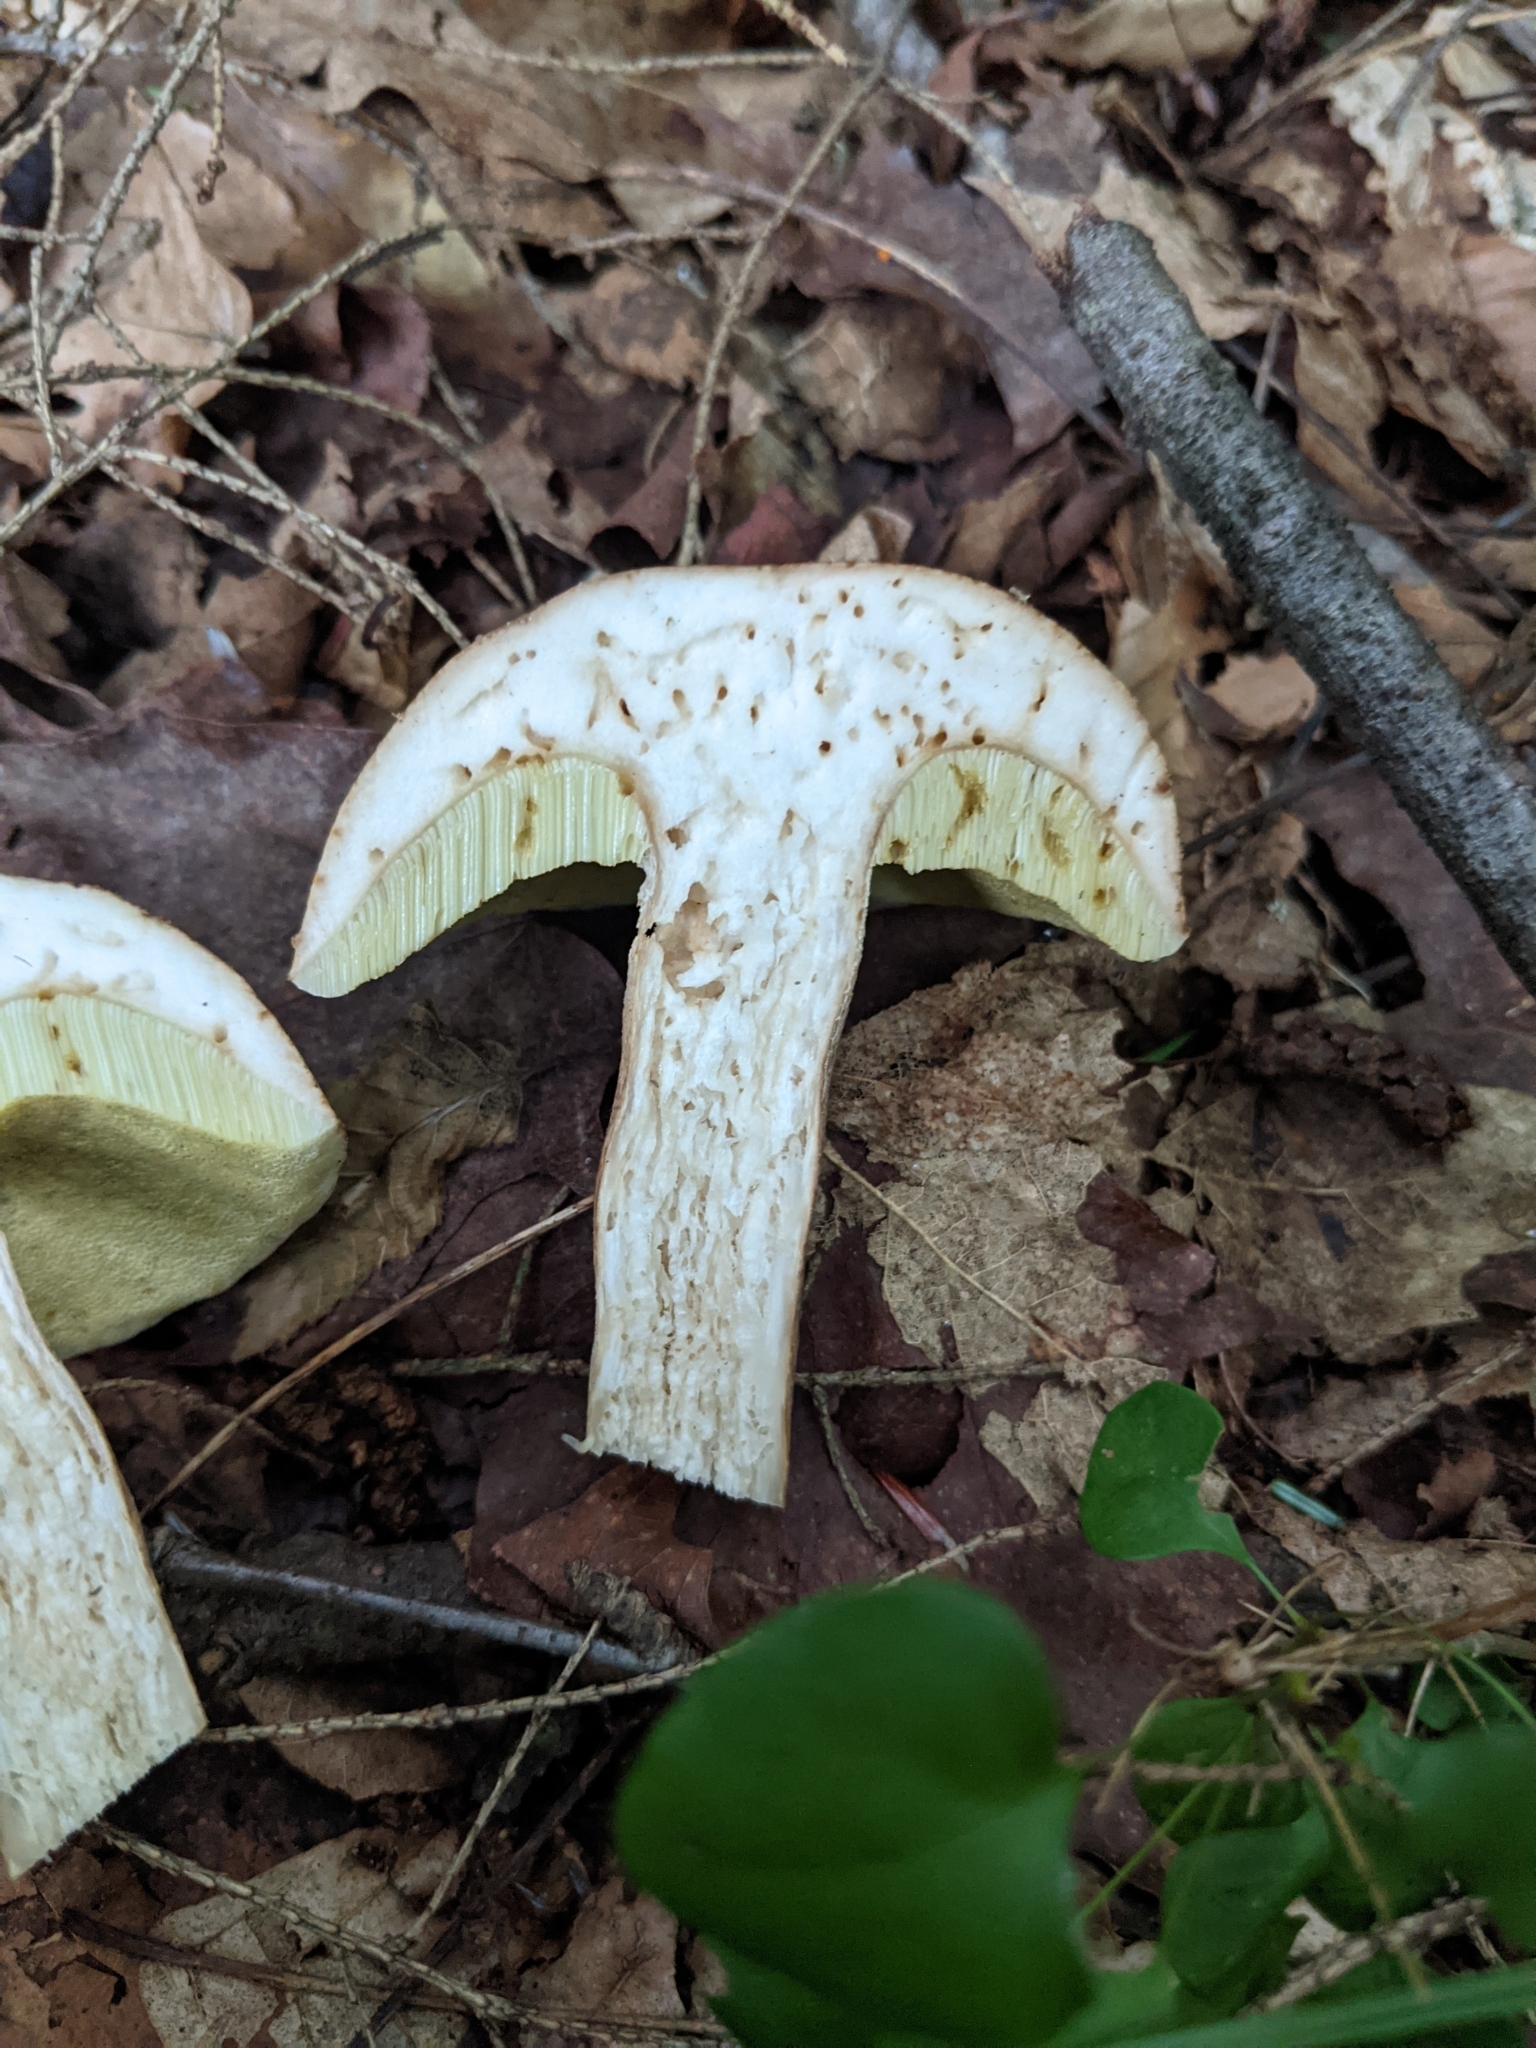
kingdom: Fungi
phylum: Basidiomycota
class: Agaricomycetes
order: Boletales
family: Boletaceae
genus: Boletus
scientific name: Boletus variipes
